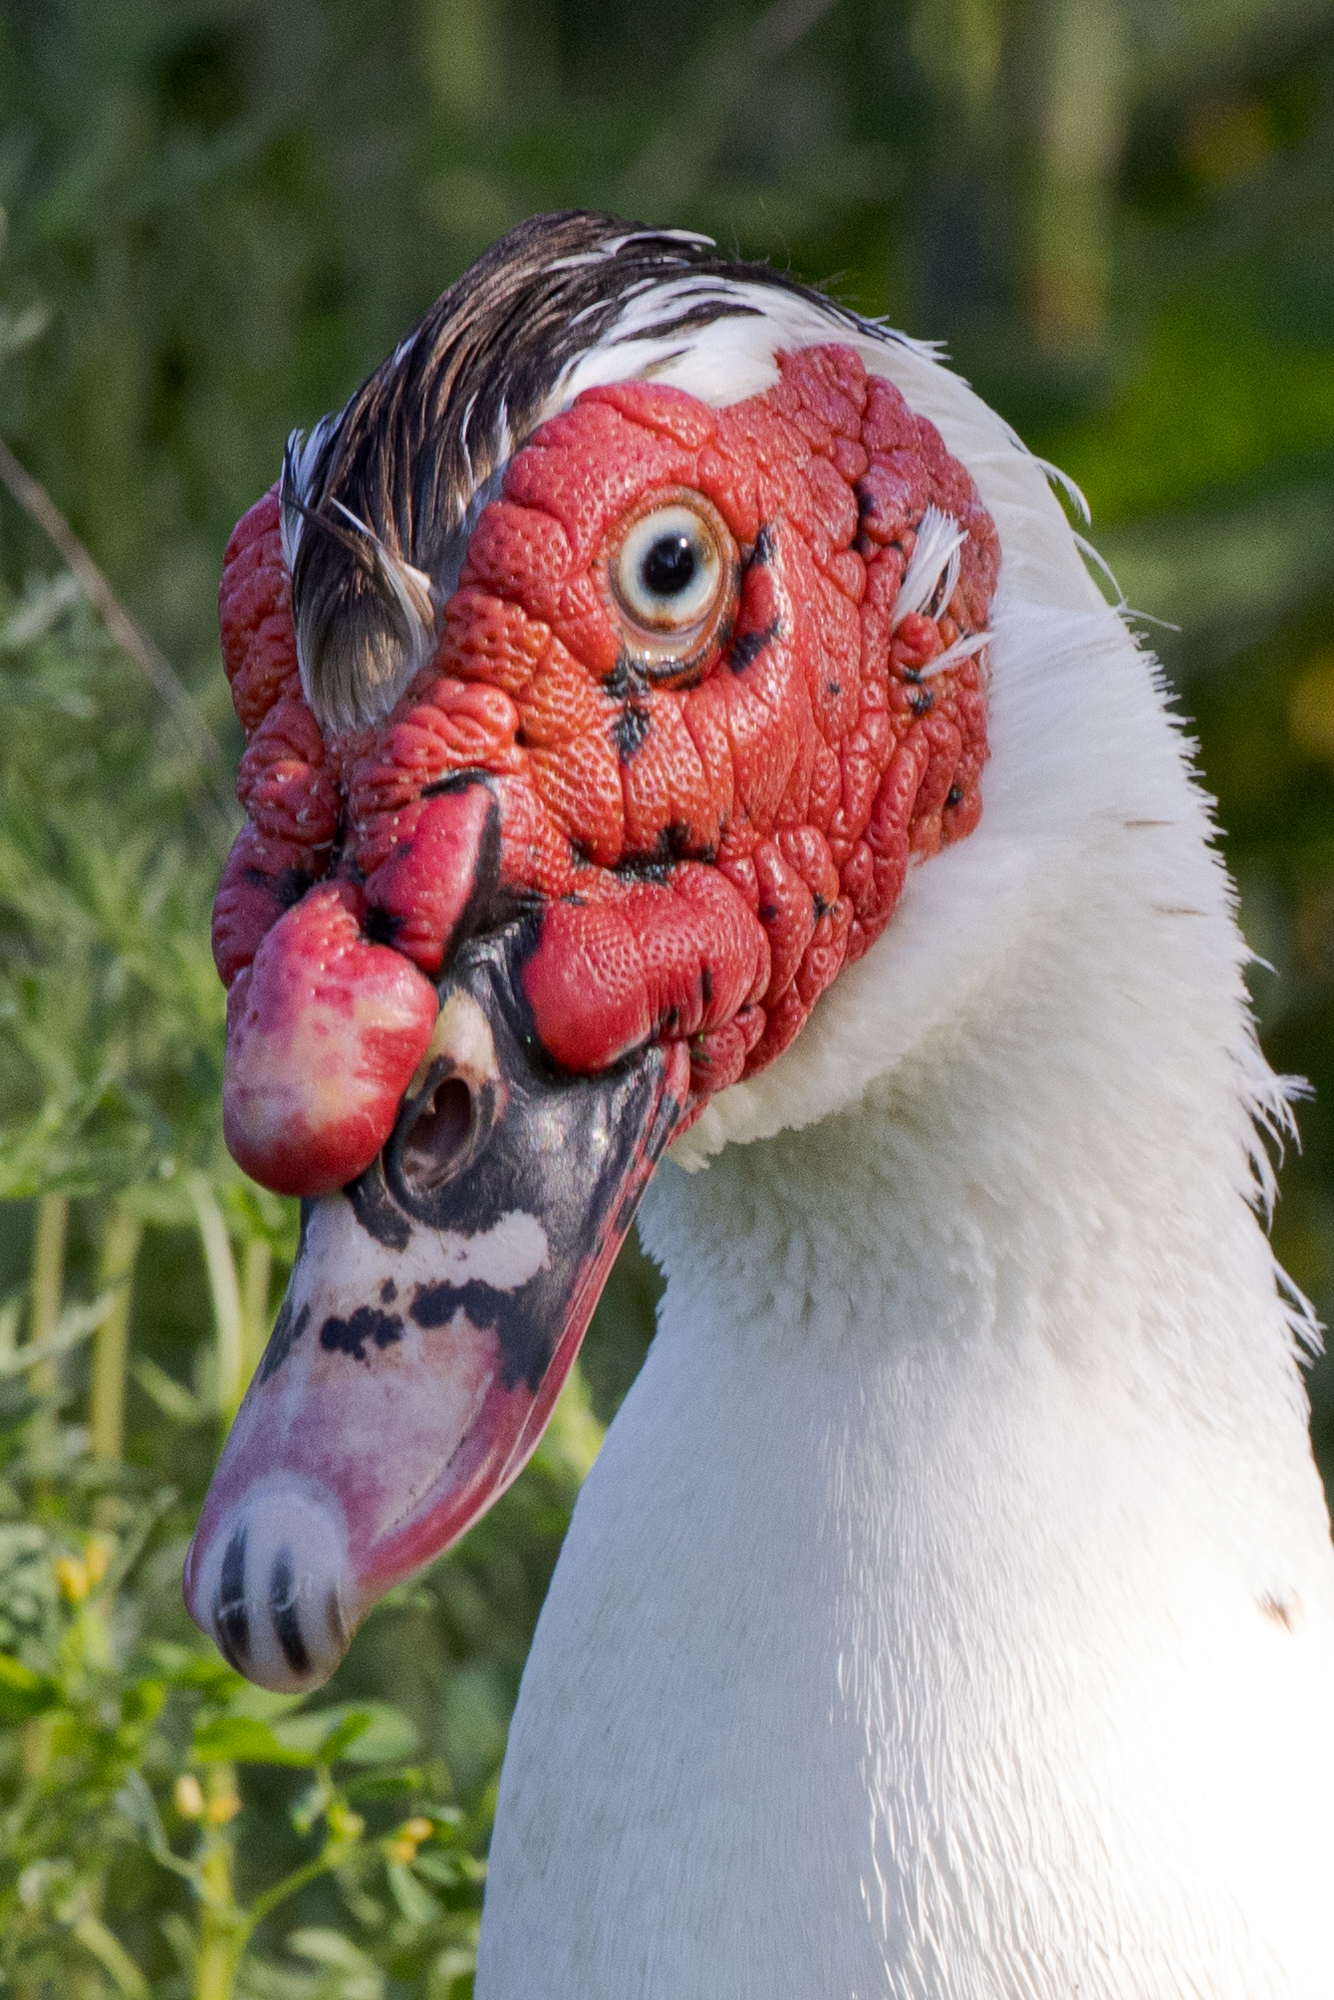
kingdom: Animalia
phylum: Chordata
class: Aves
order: Anseriformes
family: Anatidae
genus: Cairina
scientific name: Cairina moschata
